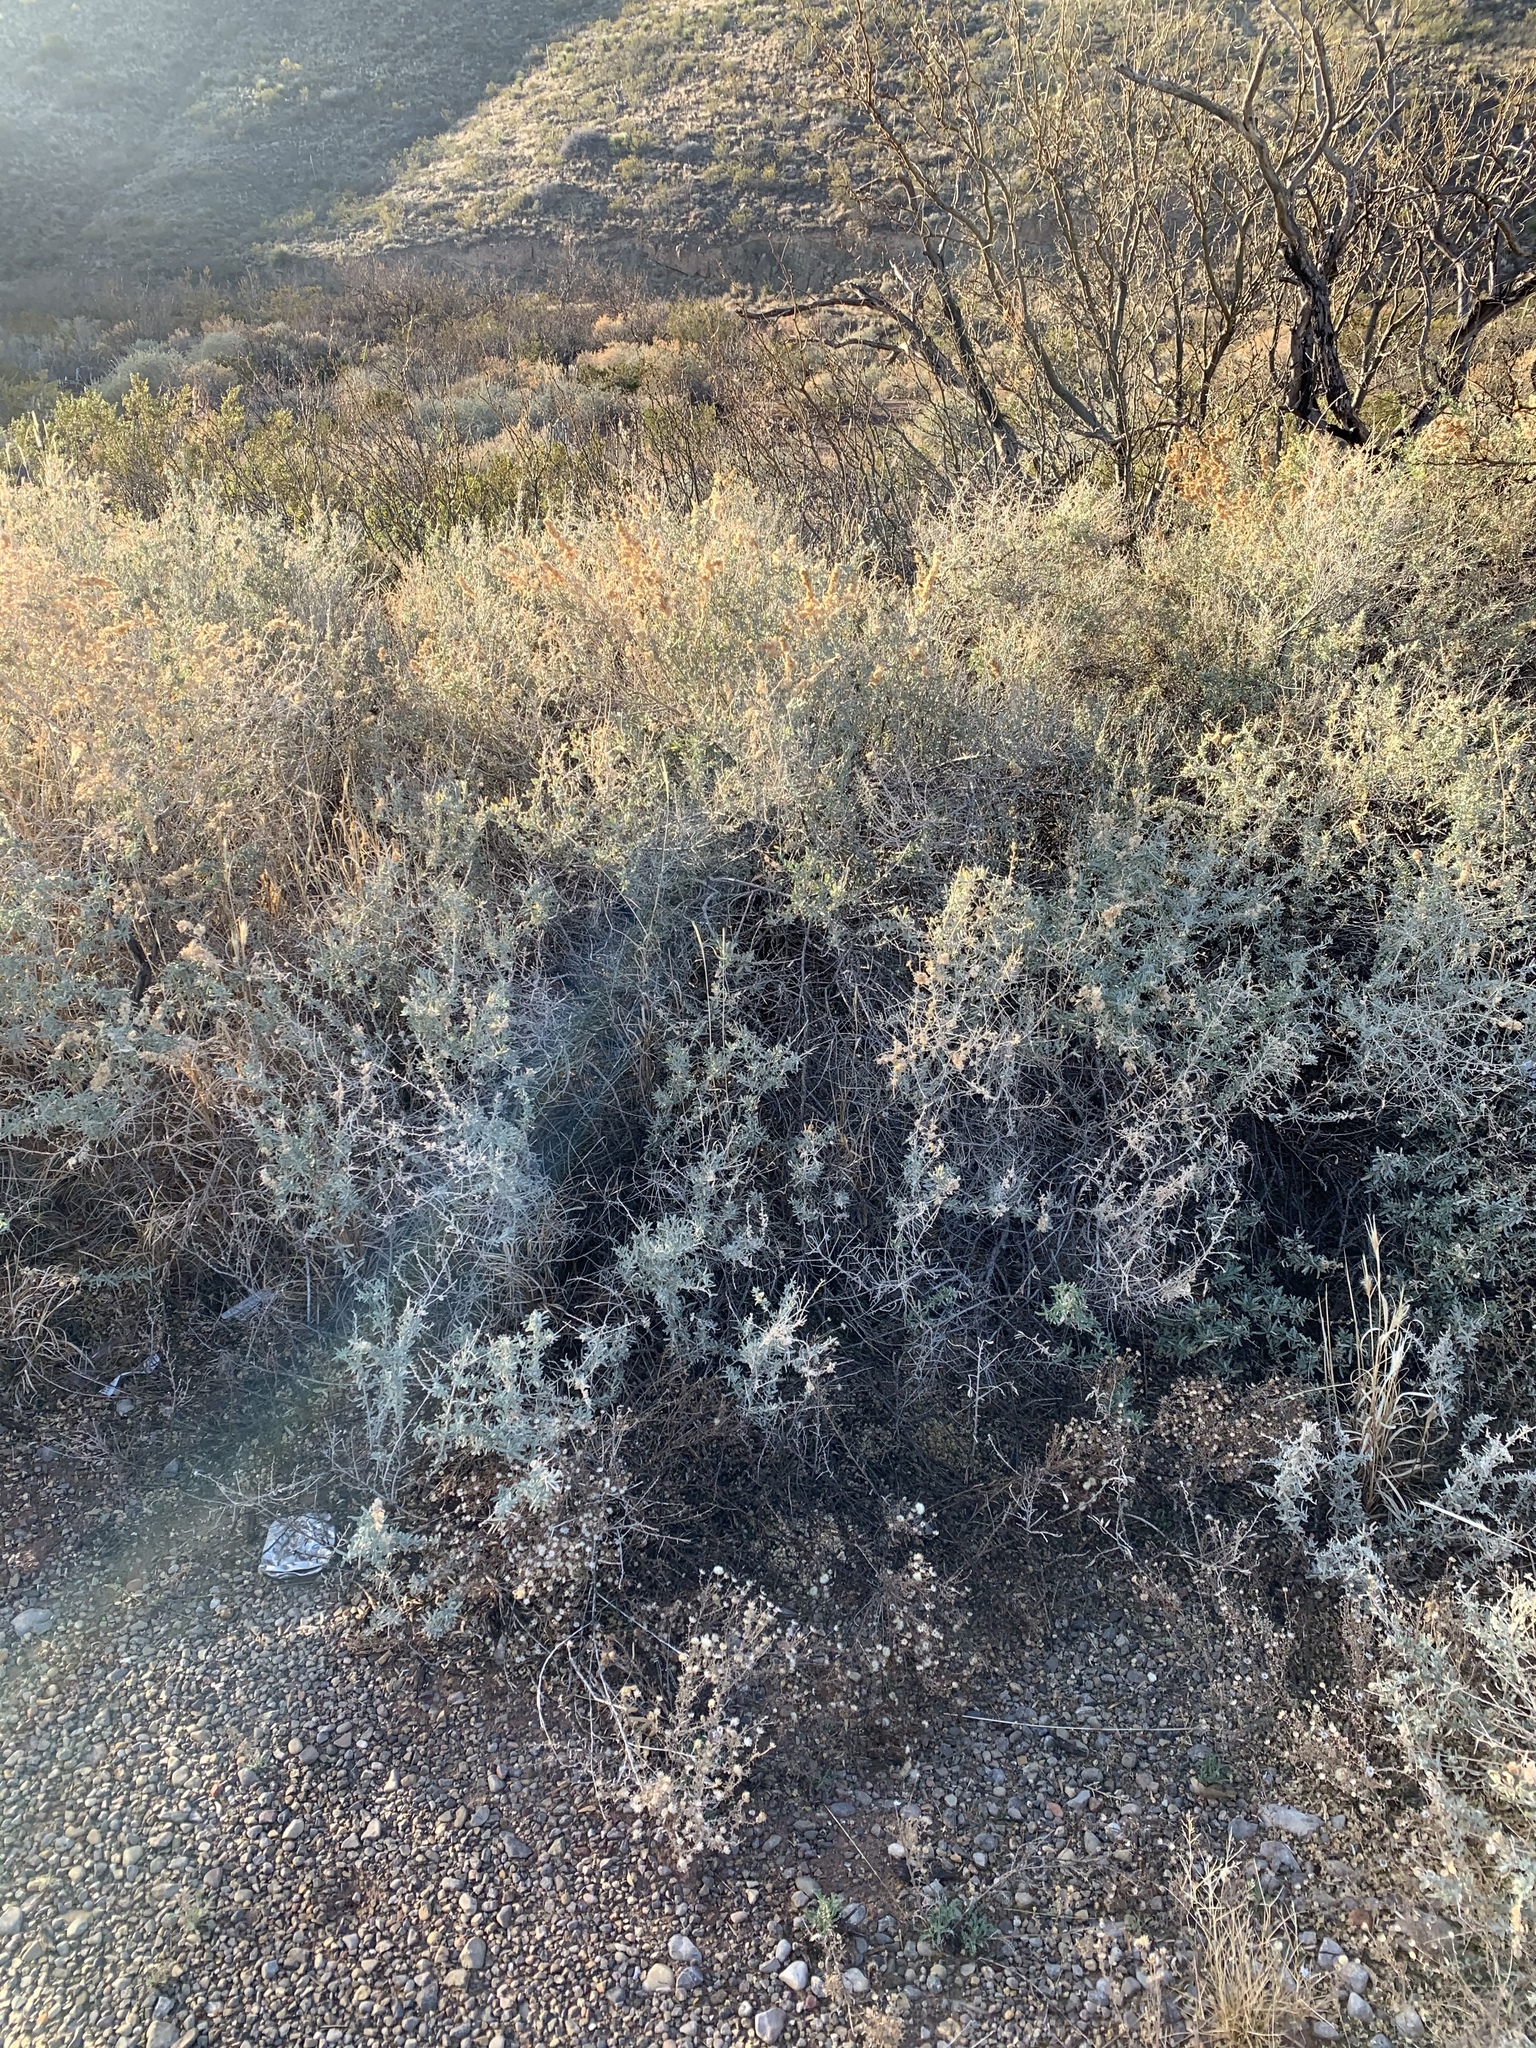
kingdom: Plantae
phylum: Tracheophyta
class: Magnoliopsida
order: Caryophyllales
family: Amaranthaceae
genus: Atriplex
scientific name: Atriplex canescens
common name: Four-wing saltbush
